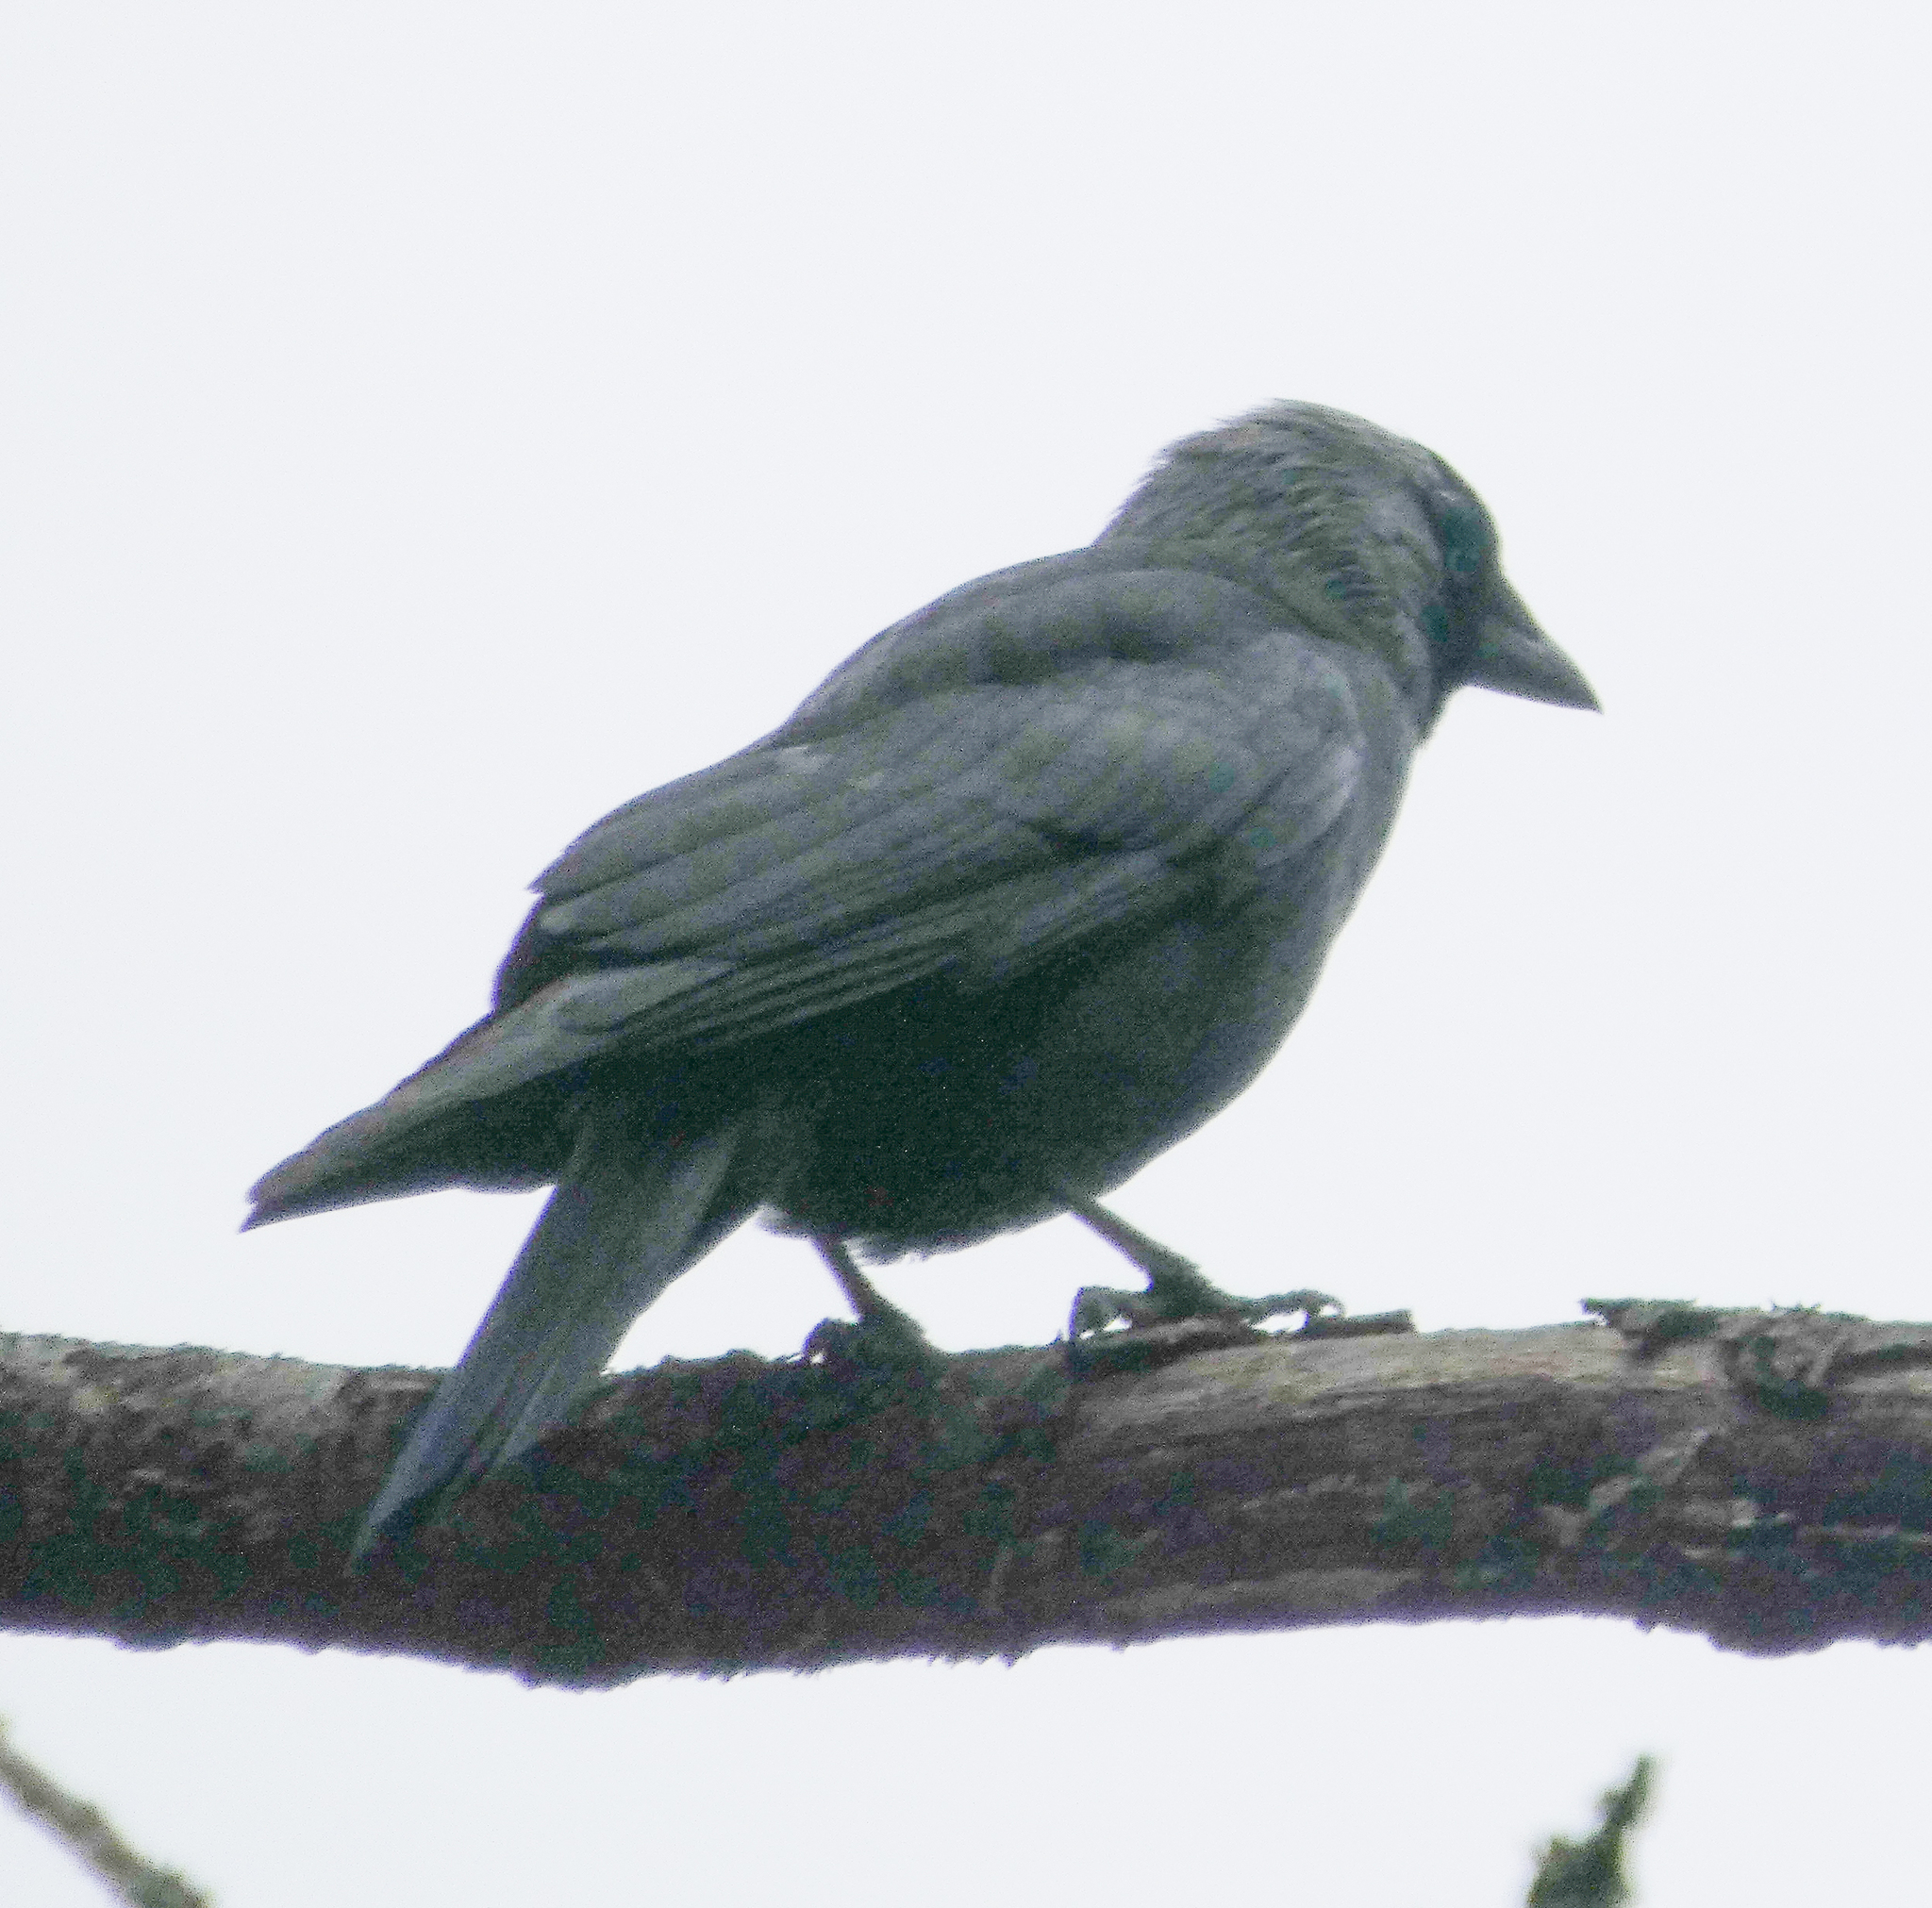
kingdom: Animalia
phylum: Chordata
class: Aves
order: Passeriformes
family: Corvidae
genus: Coloeus
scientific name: Coloeus monedula
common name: Western jackdaw
